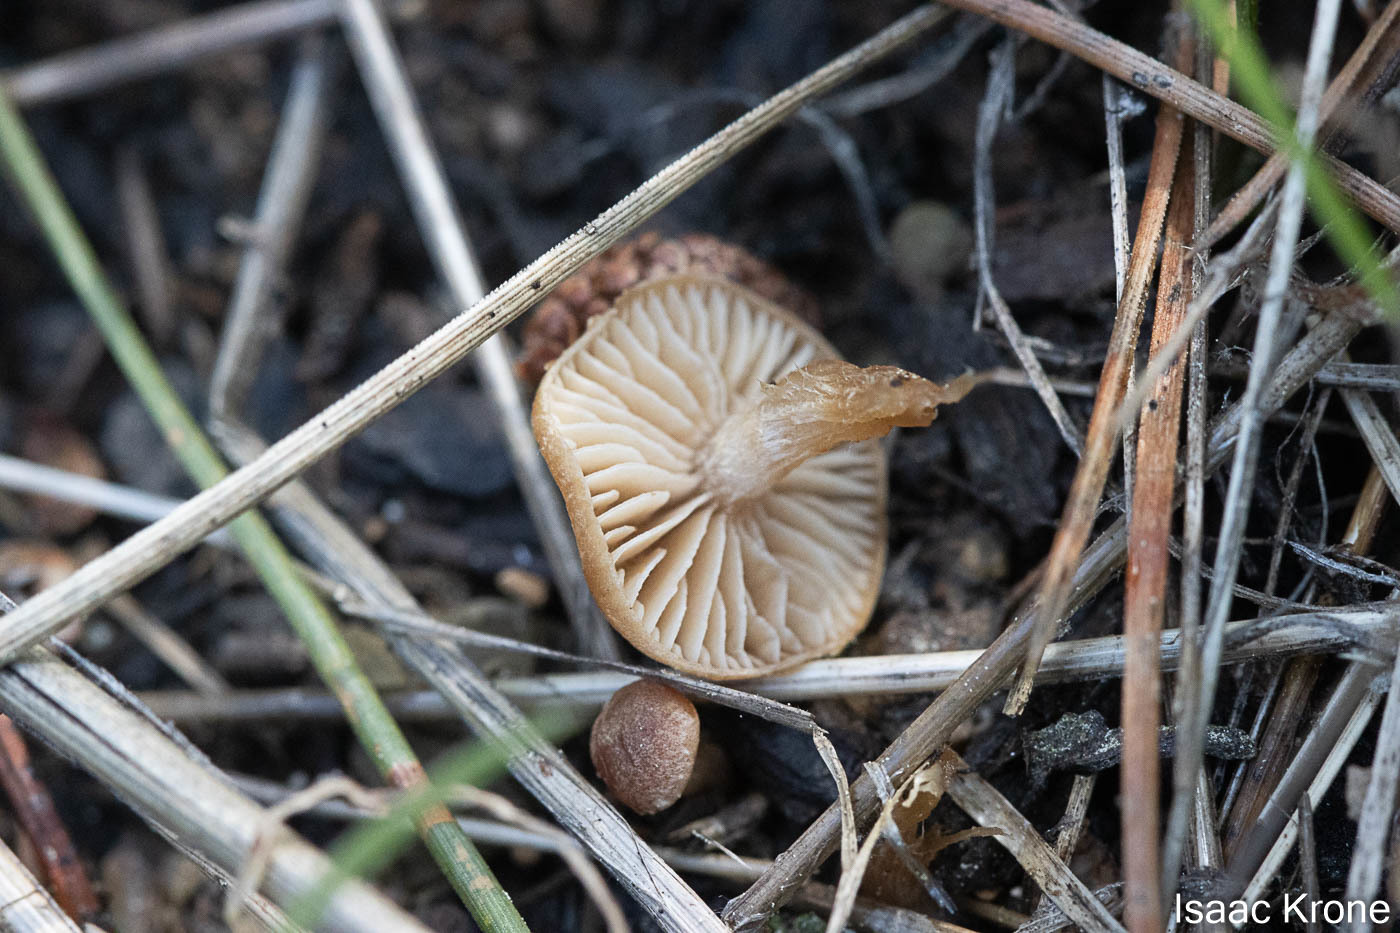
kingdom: Fungi
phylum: Basidiomycota
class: Agaricomycetes
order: Agaricales
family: Tubariaceae
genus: Tubaria
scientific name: Tubaria furfuracea
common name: Scurfy twiglet
